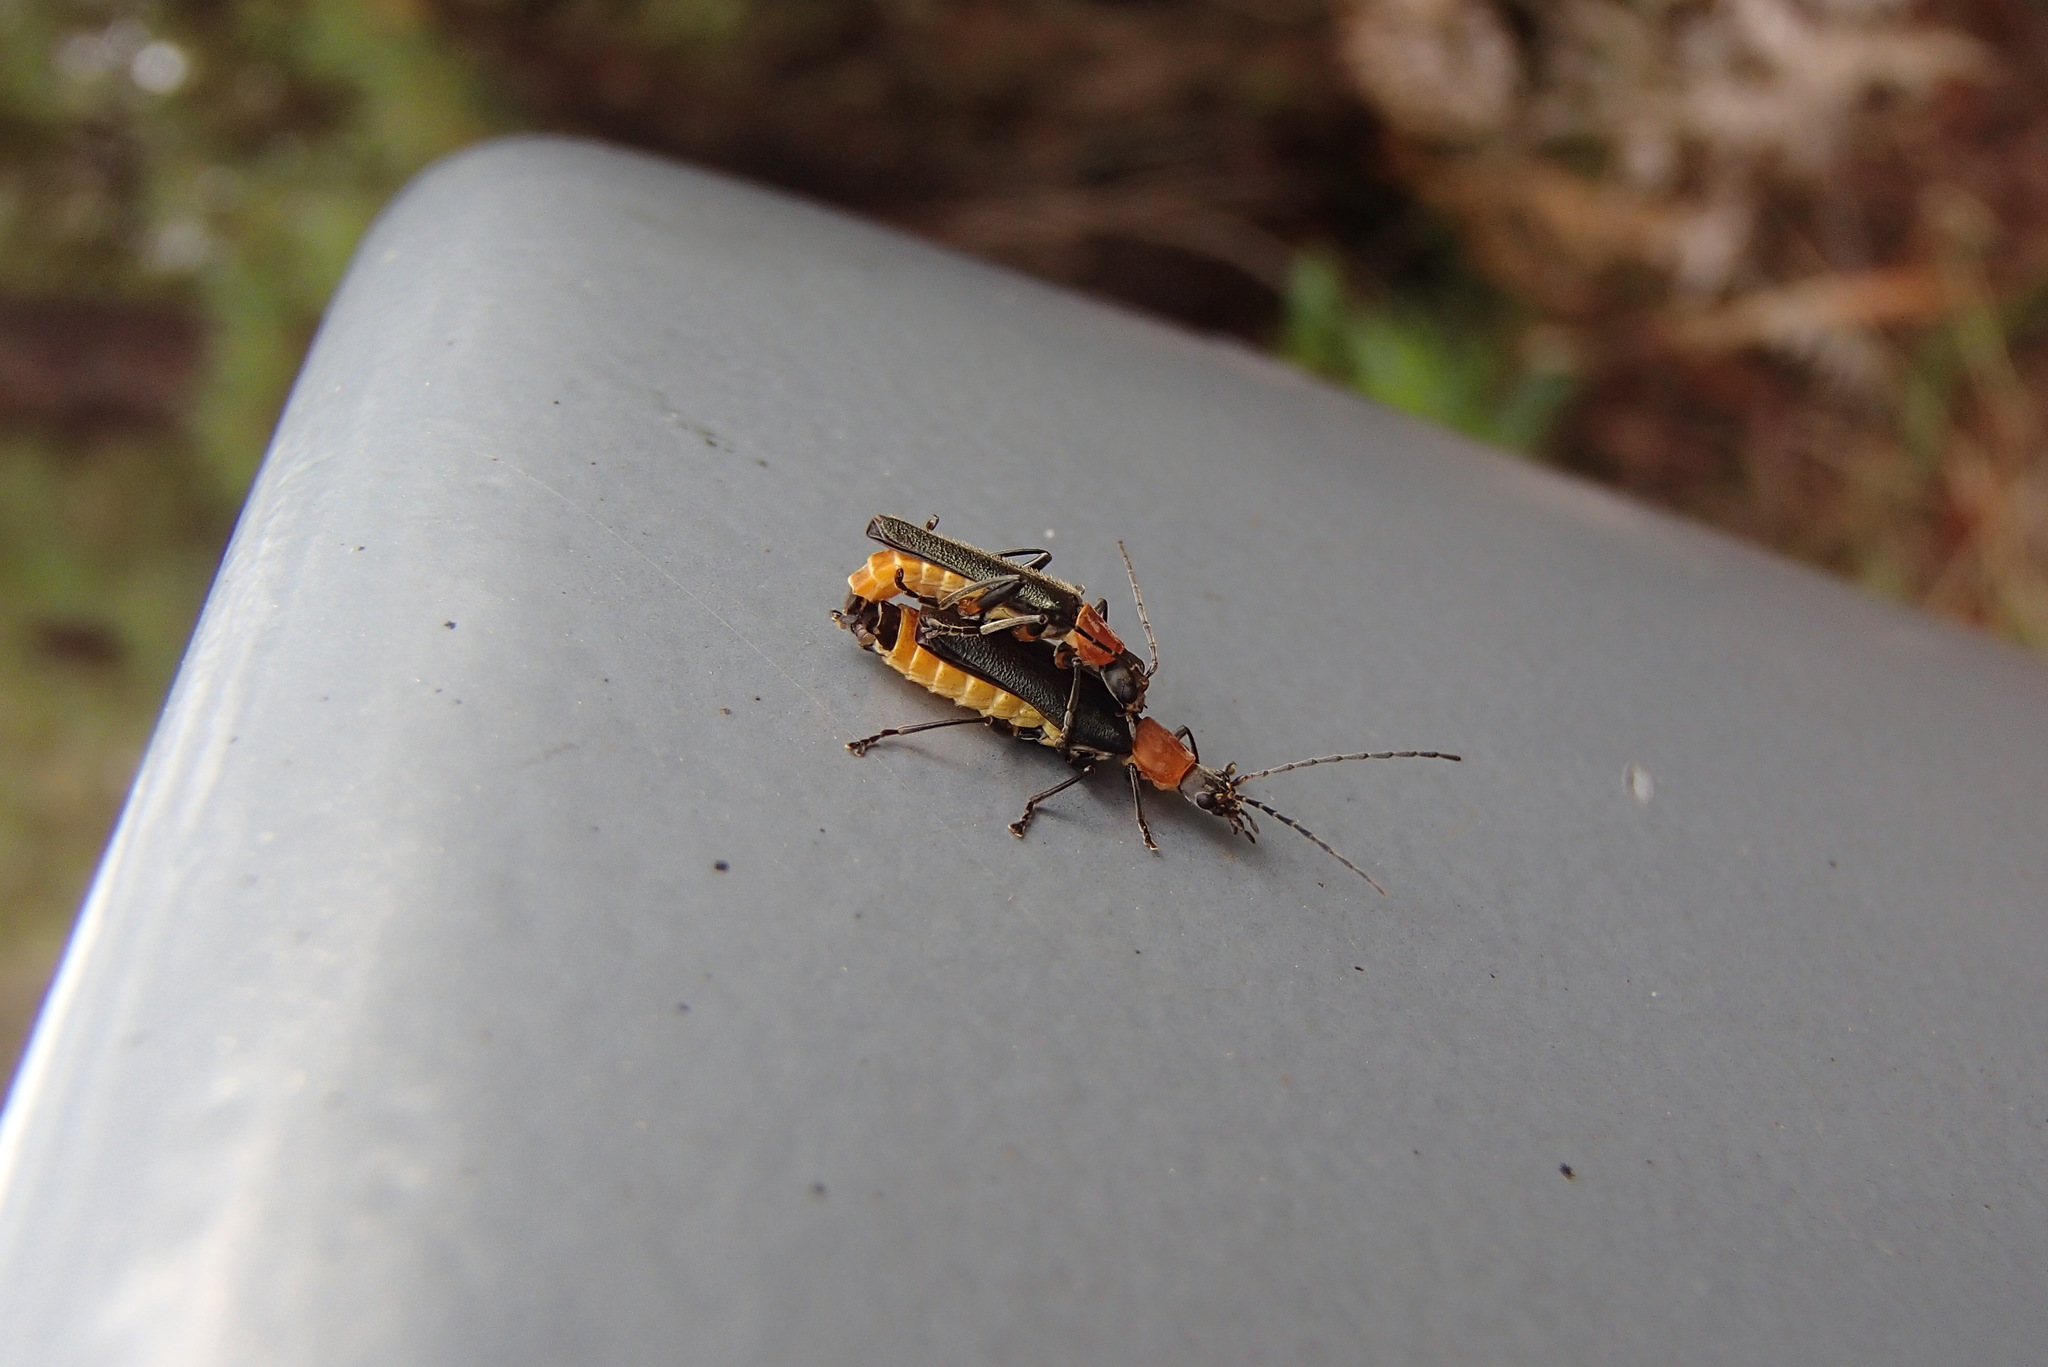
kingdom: Animalia
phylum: Arthropoda
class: Insecta
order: Coleoptera
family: Cantharidae
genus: Chauliognathus
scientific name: Chauliognathus
